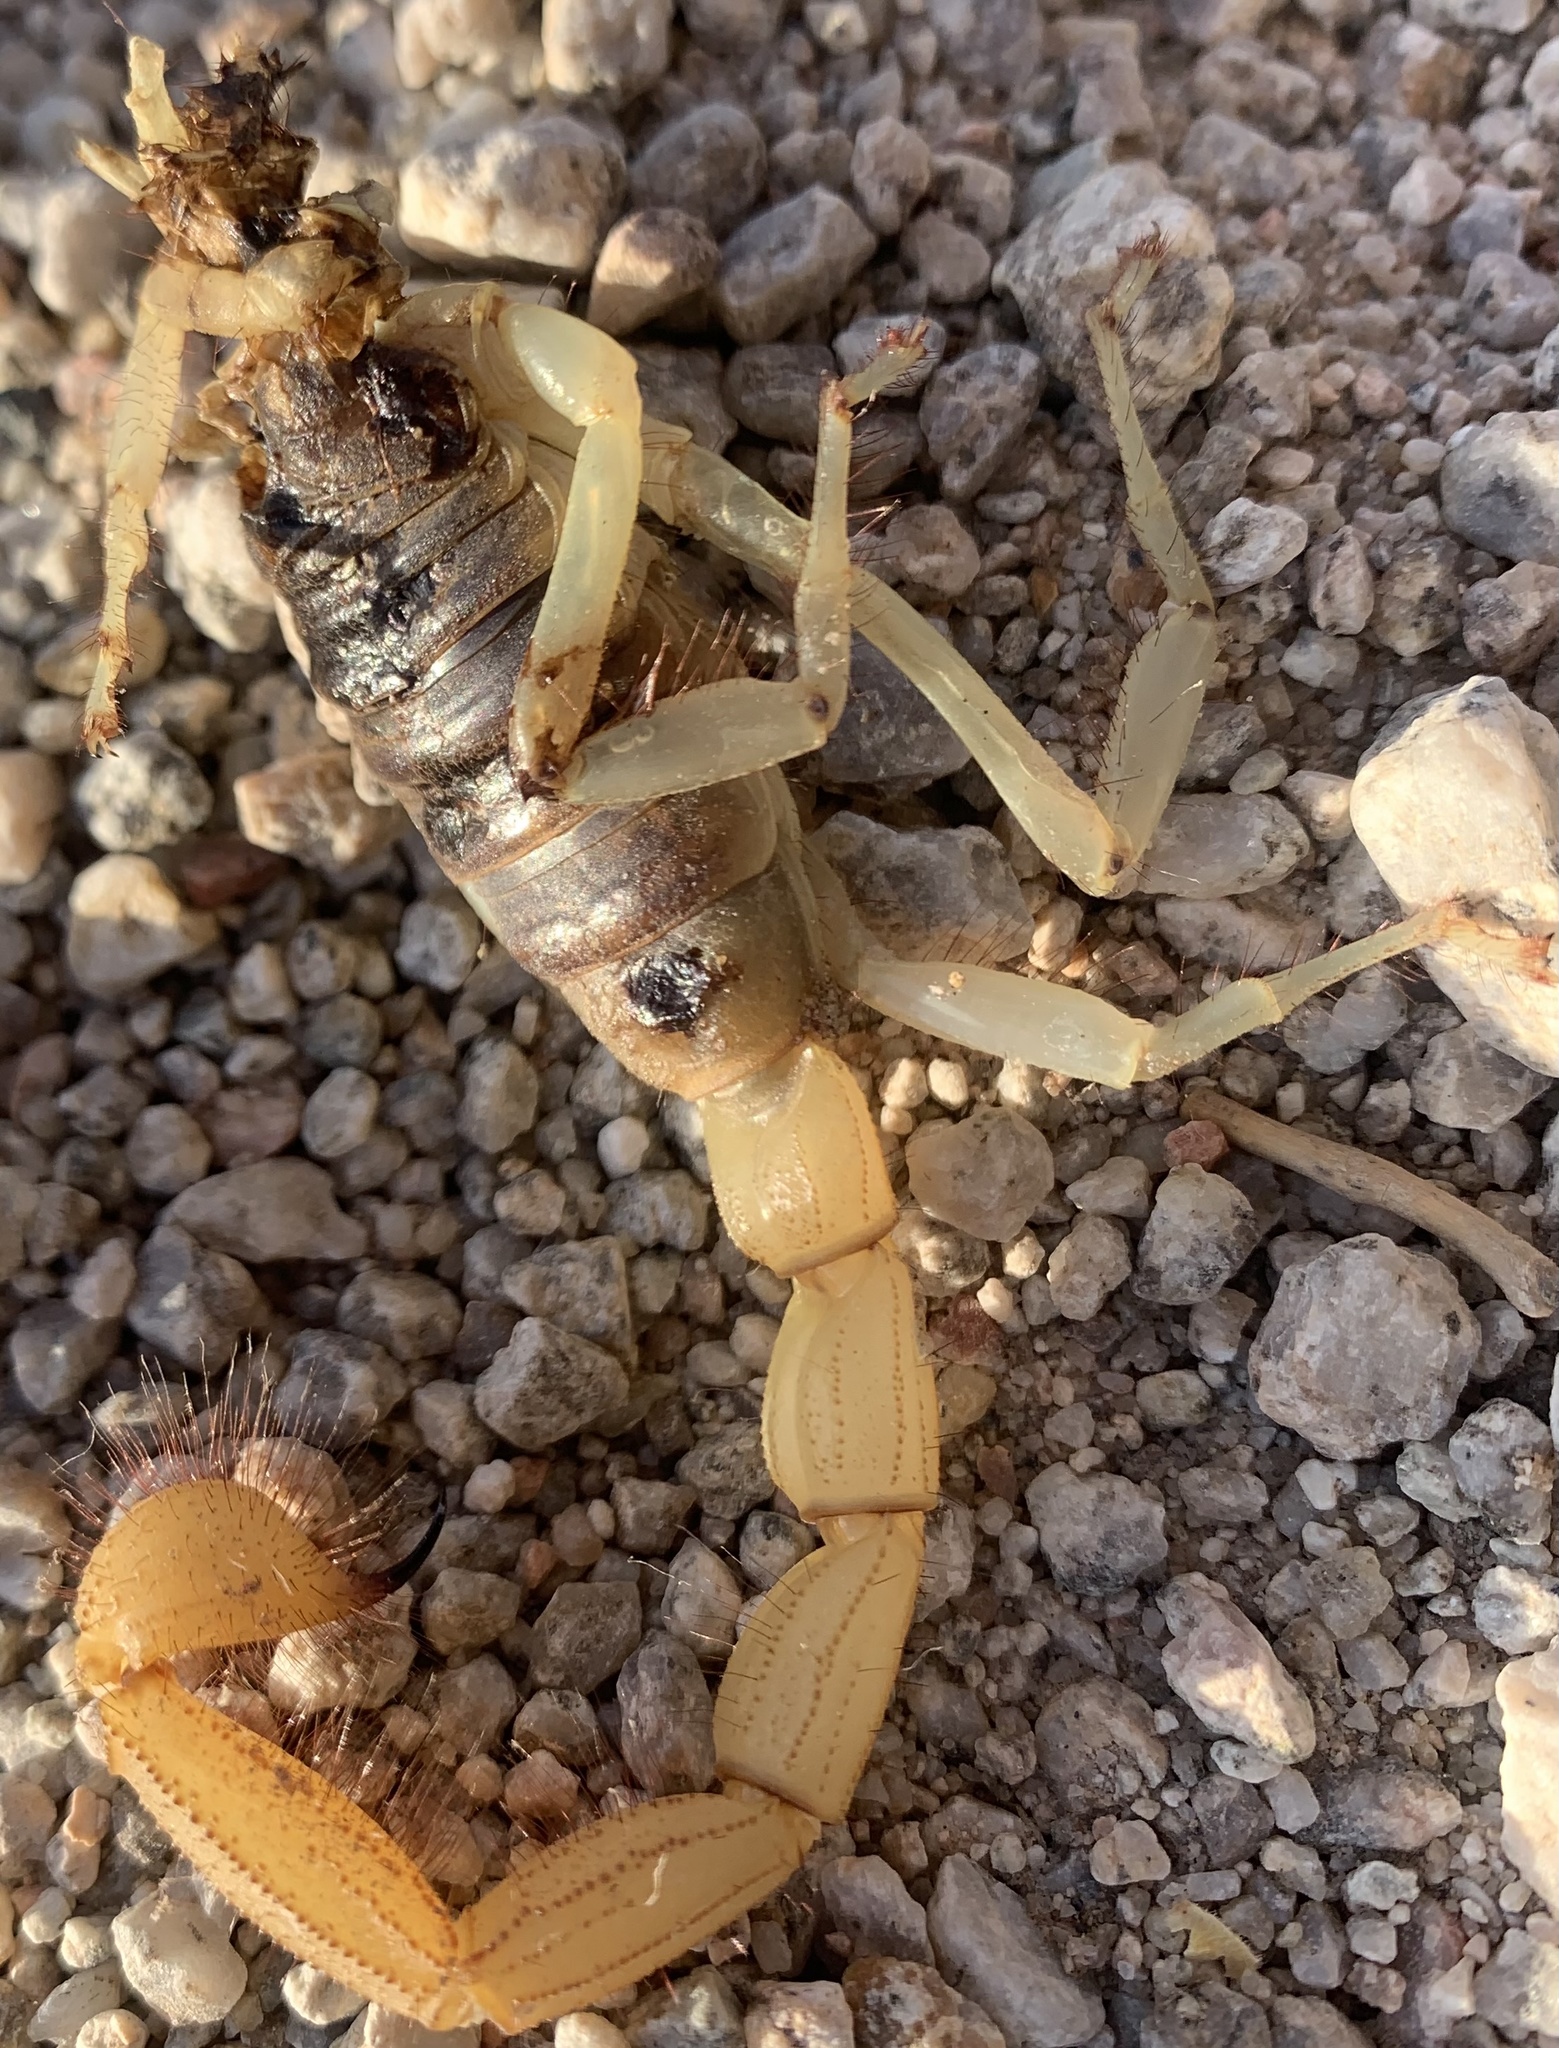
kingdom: Animalia
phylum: Arthropoda
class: Arachnida
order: Scorpiones
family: Hadruridae
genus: Hadrurus
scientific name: Hadrurus arizonensis
